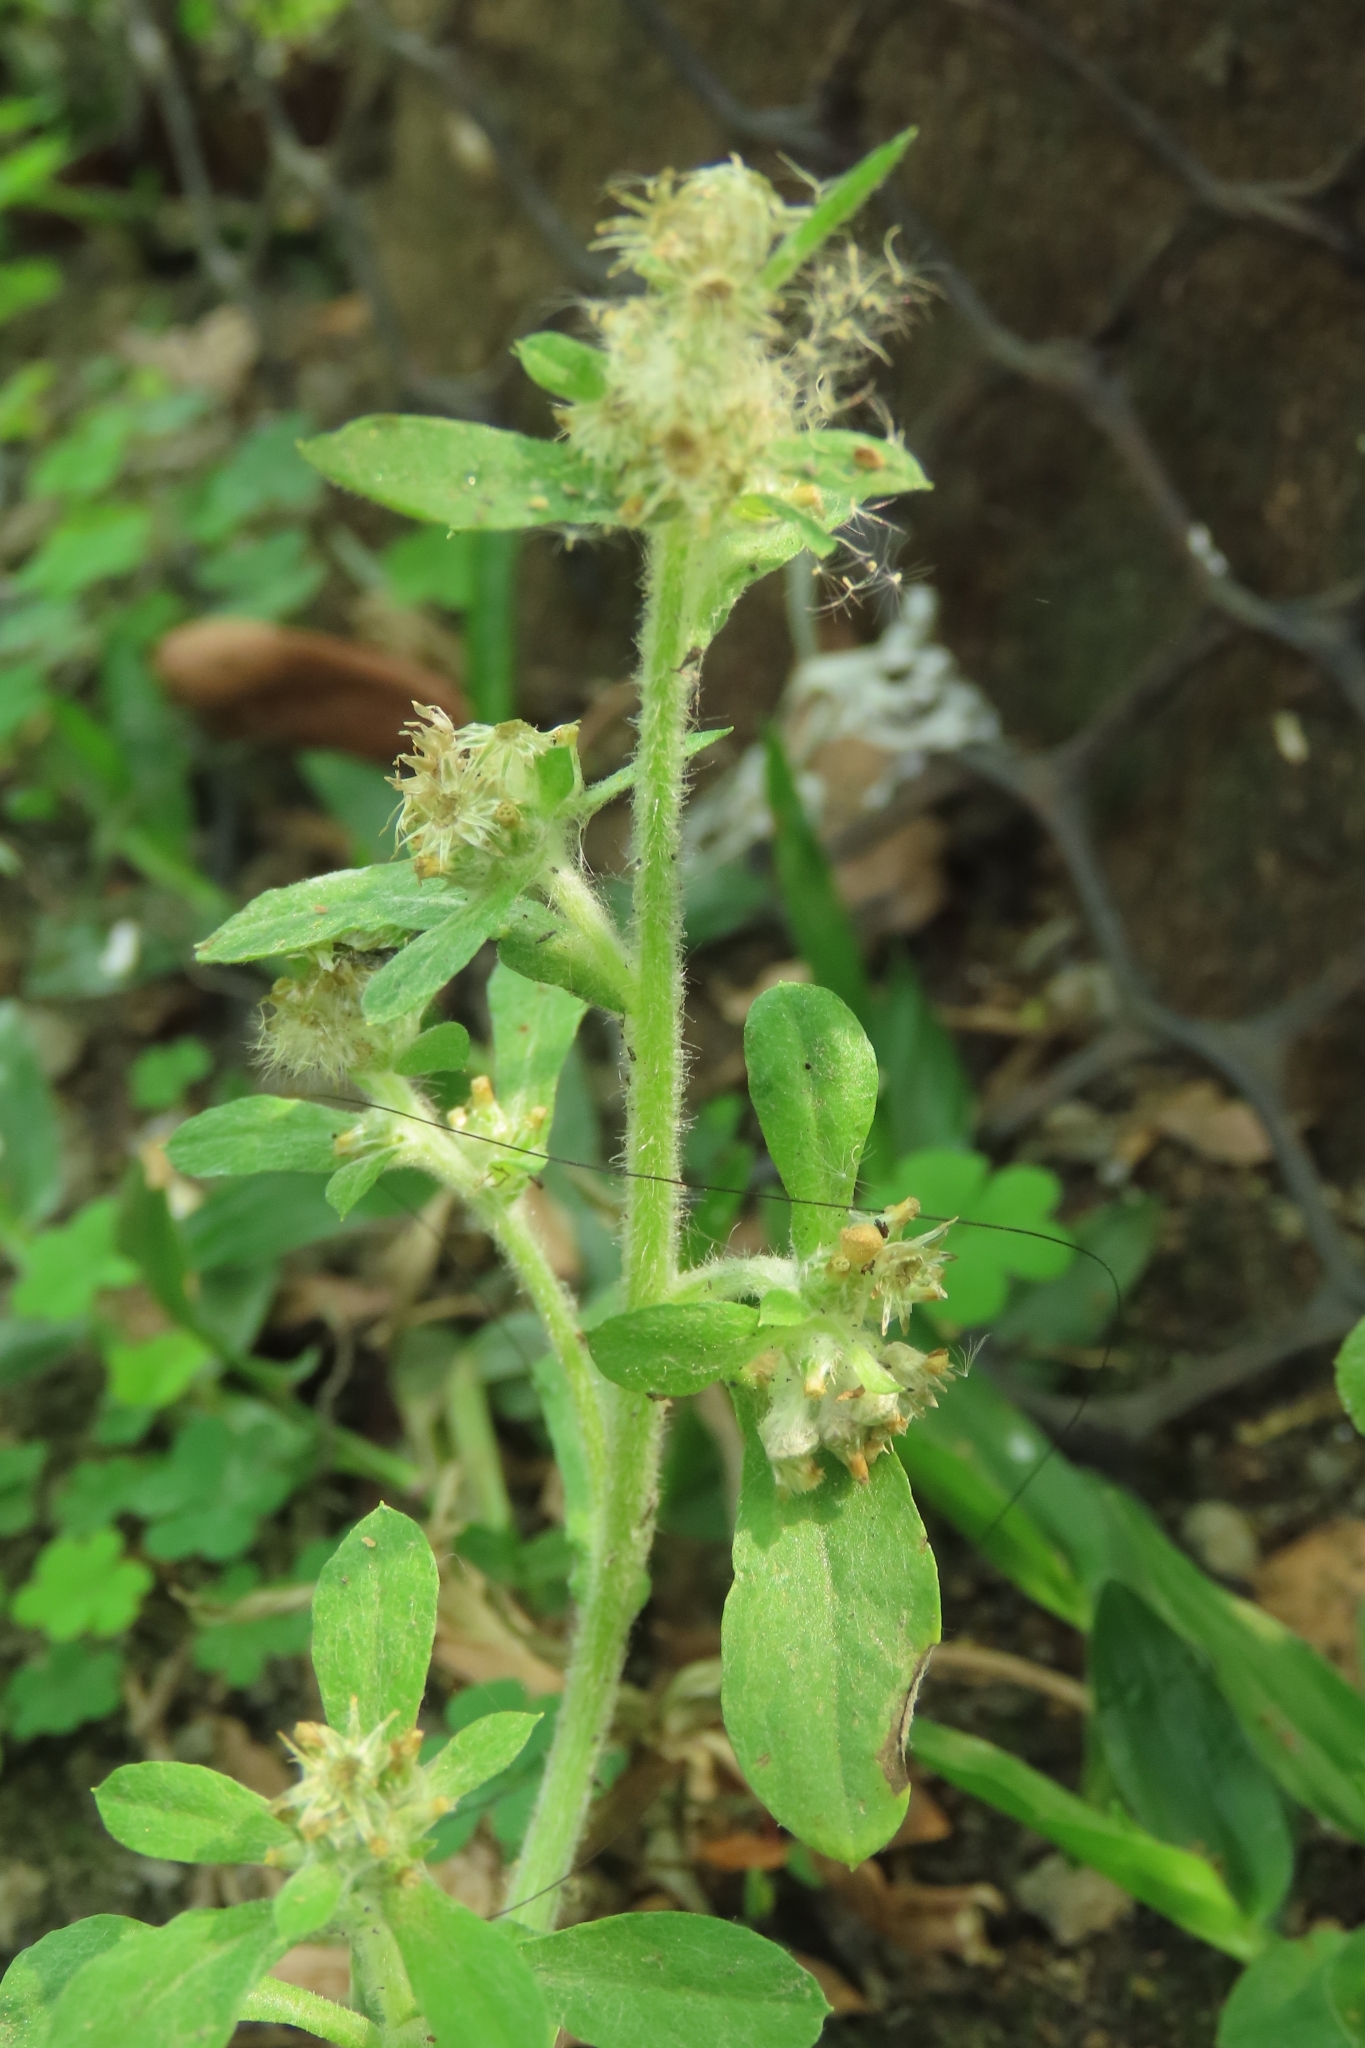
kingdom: Plantae
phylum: Tracheophyta
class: Magnoliopsida
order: Asterales
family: Asteraceae
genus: Gamochaeta
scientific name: Gamochaeta pensylvanica
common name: Pennsylvania everlasting
